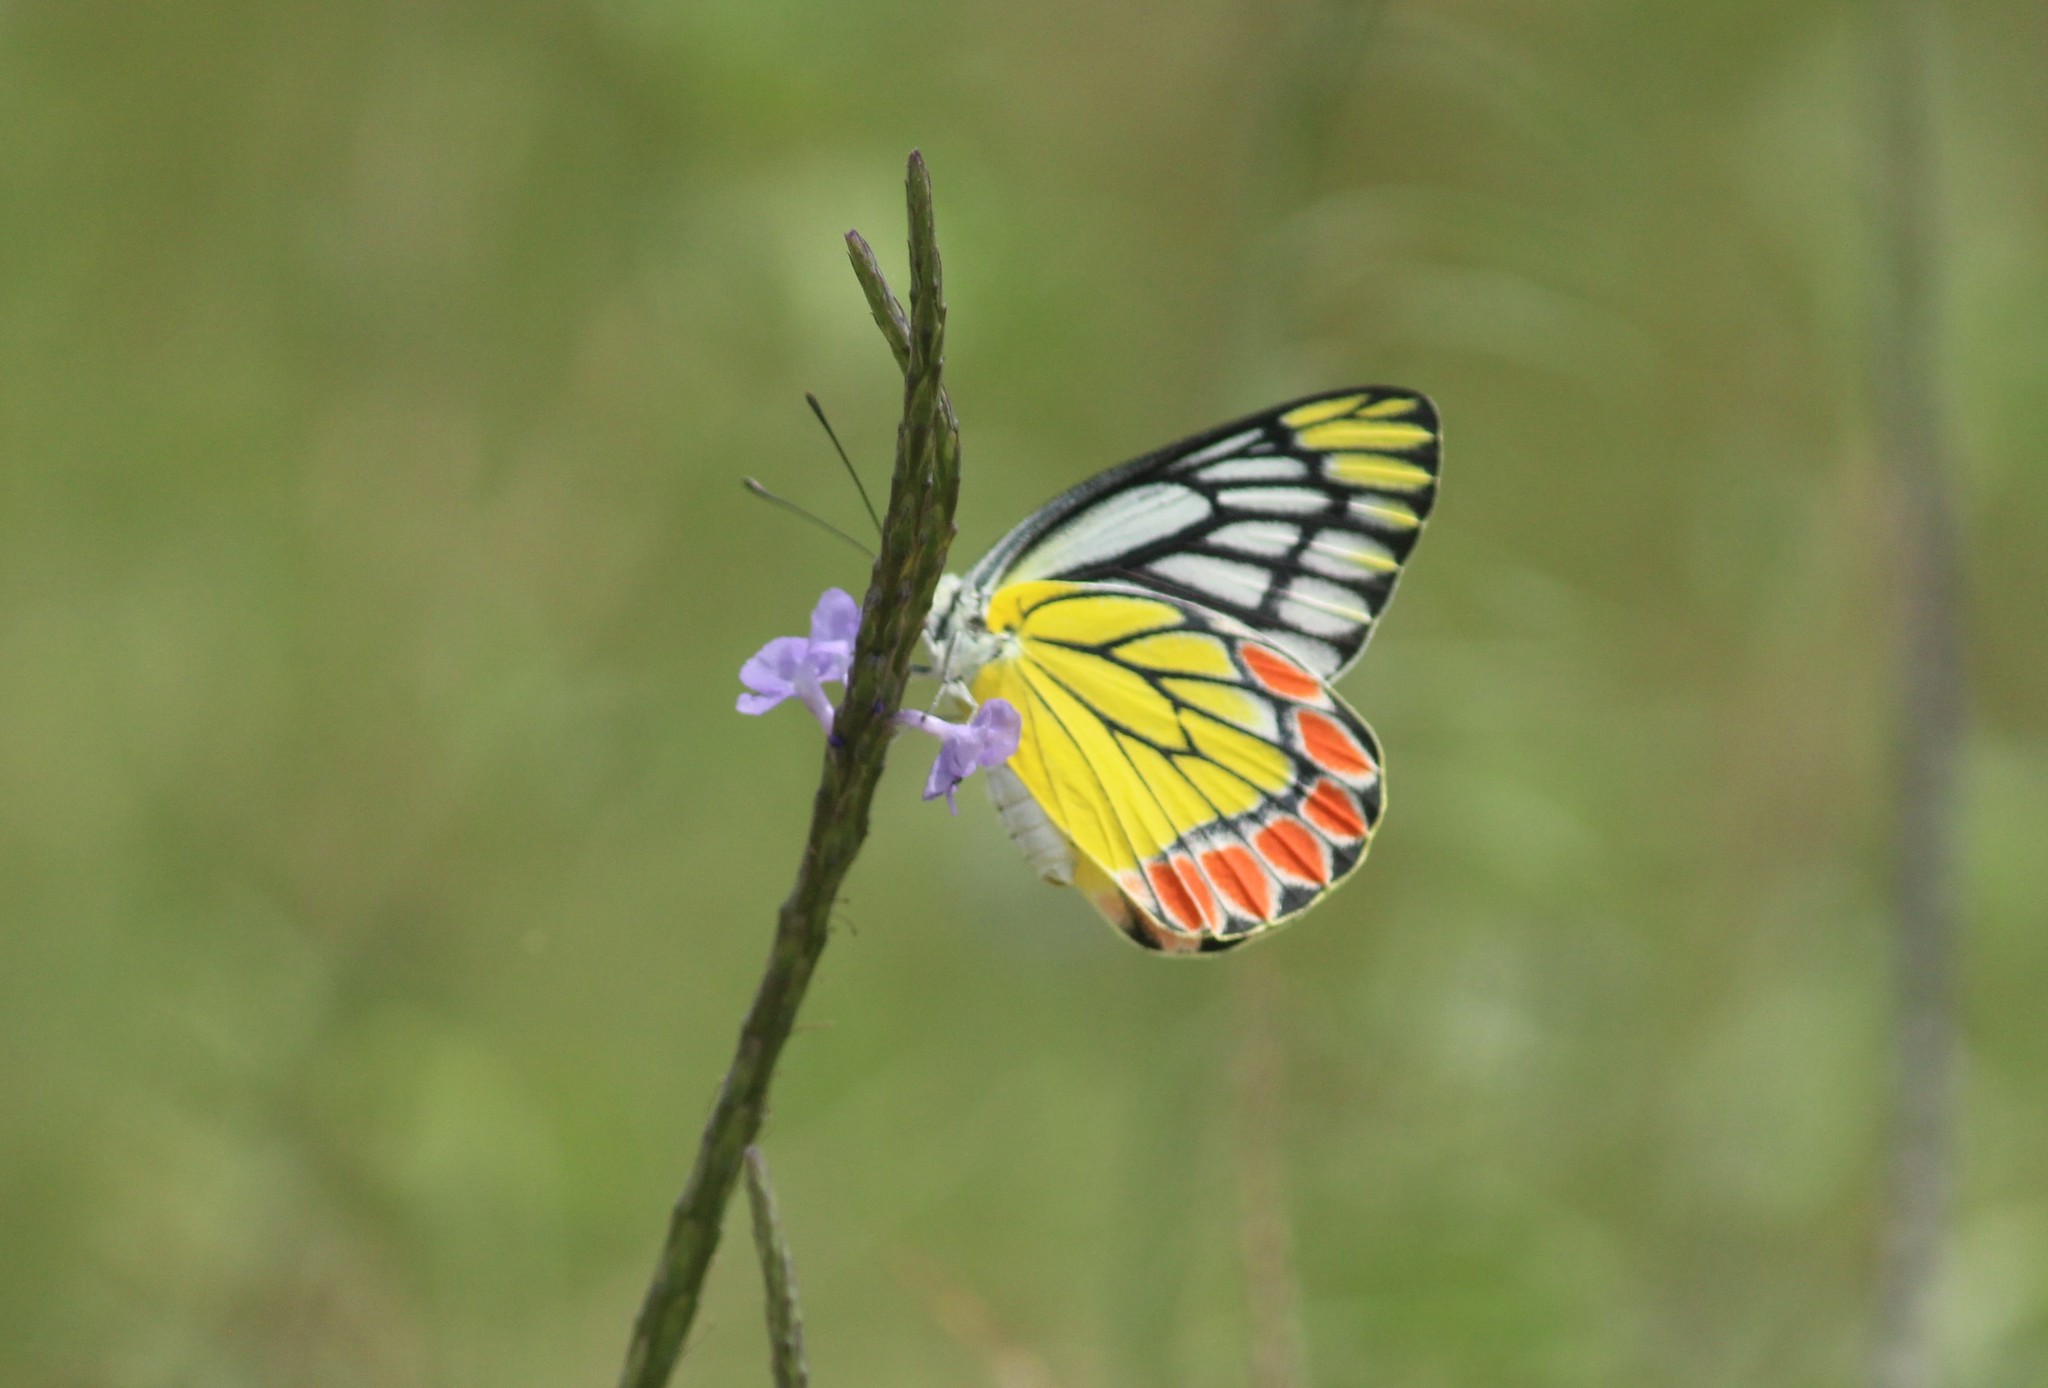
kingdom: Animalia
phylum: Arthropoda
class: Insecta
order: Lepidoptera
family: Pieridae
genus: Delias
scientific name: Delias eucharis
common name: Common jezebel
